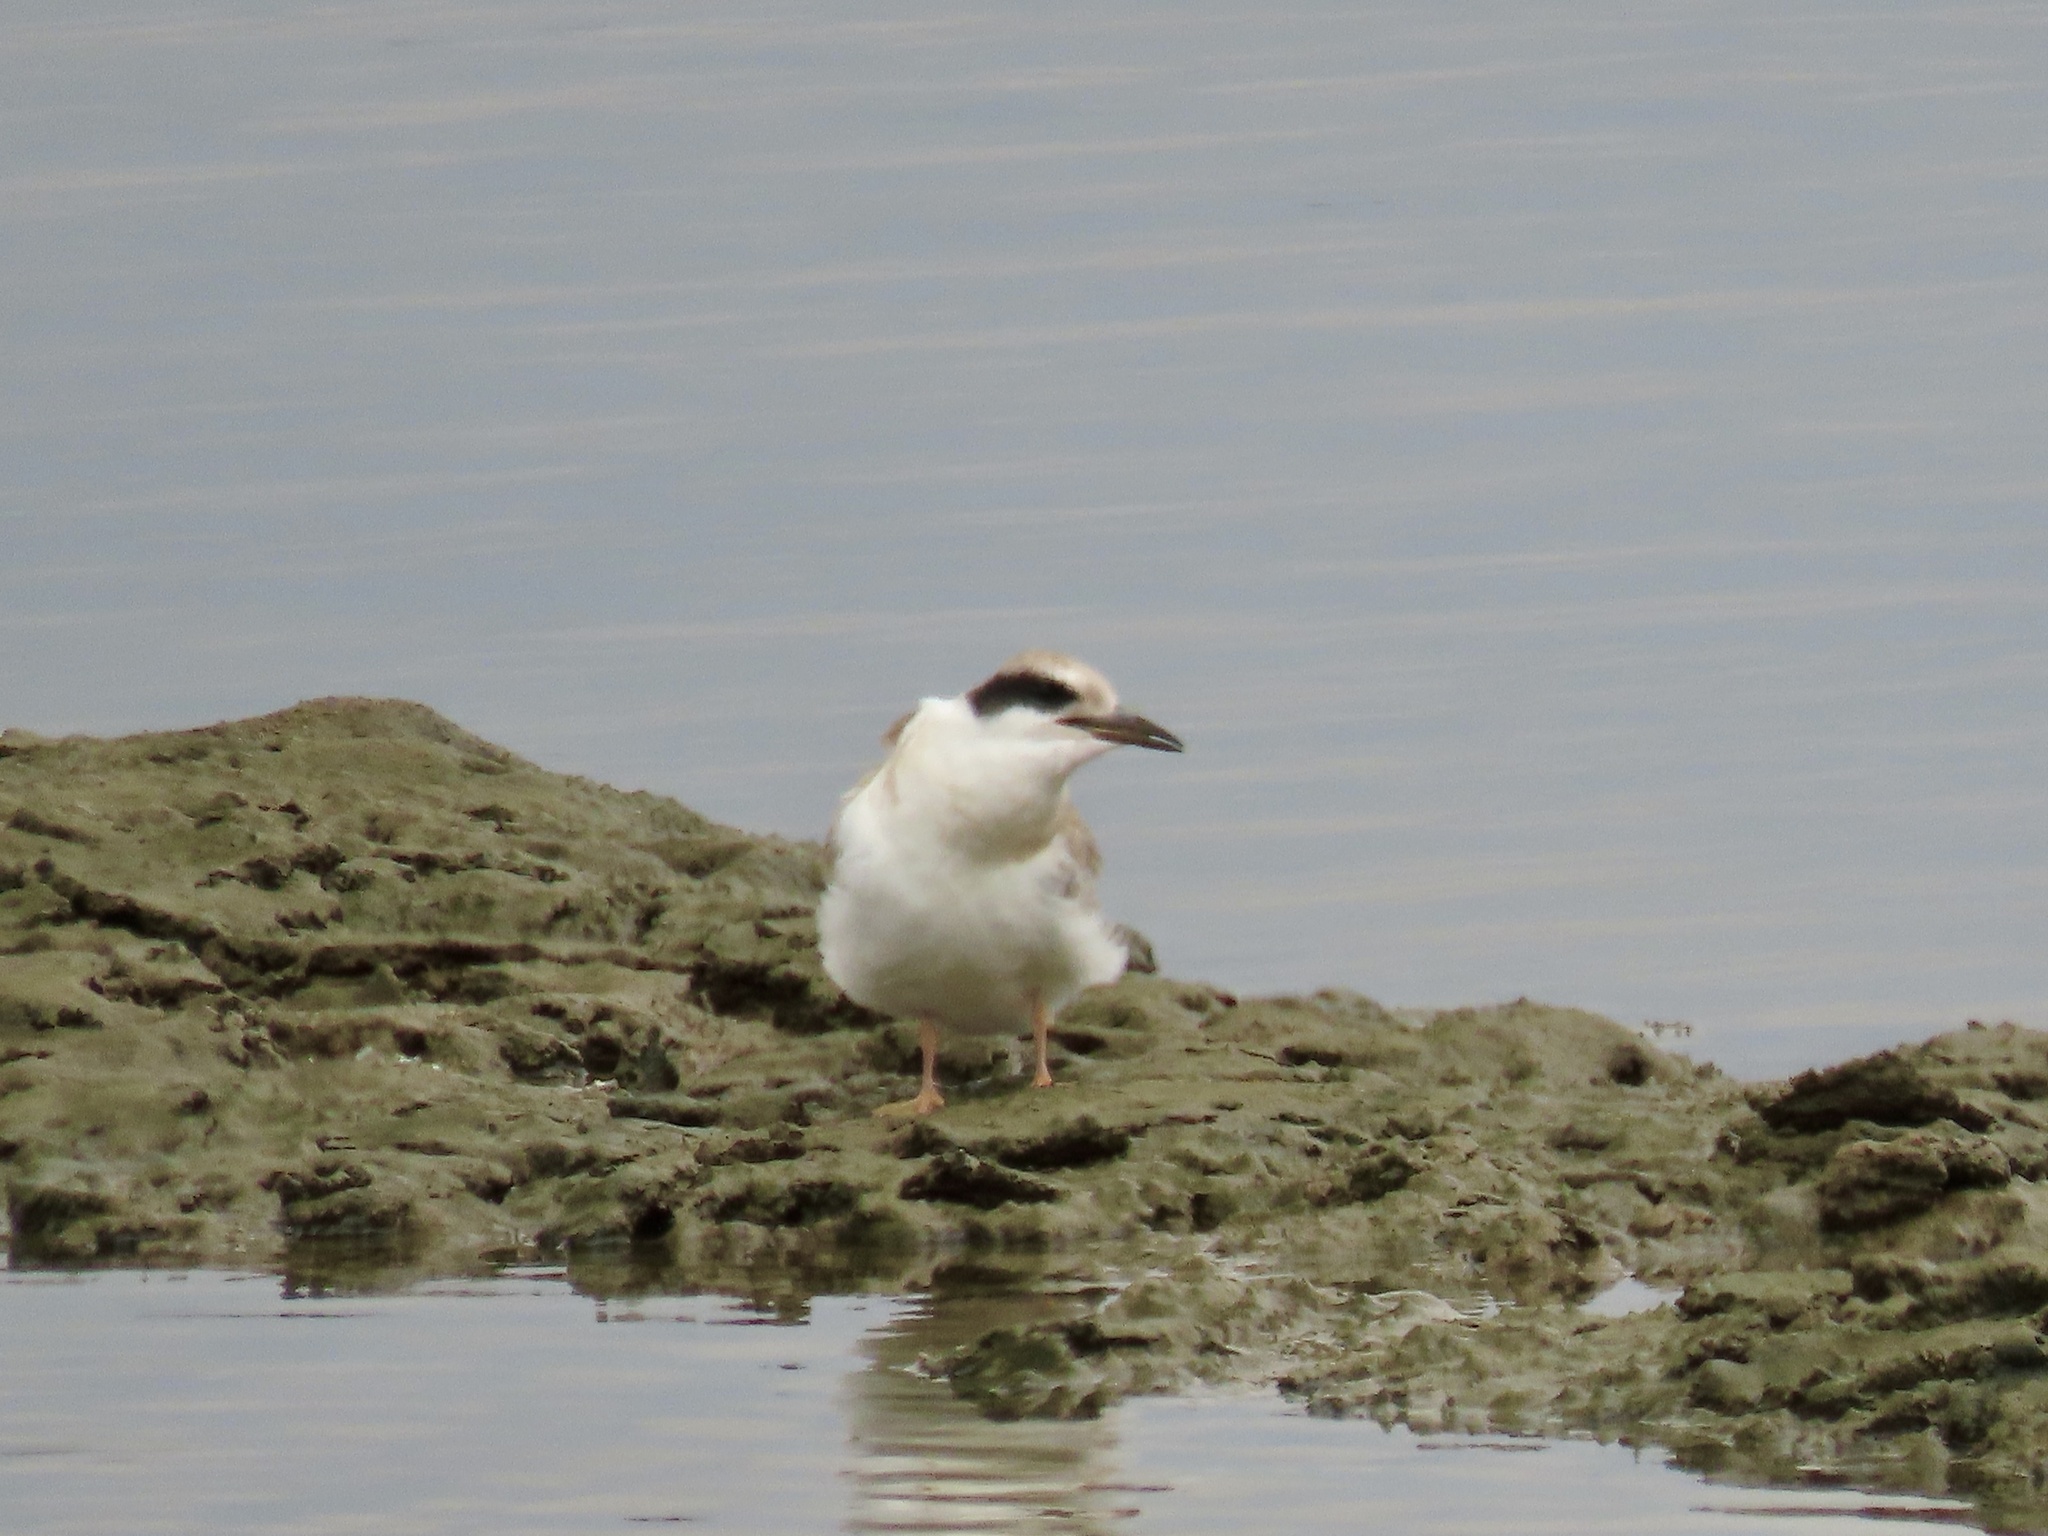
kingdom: Animalia
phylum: Chordata
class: Aves
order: Charadriiformes
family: Laridae
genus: Sterna
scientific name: Sterna forsteri
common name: Forster's tern
